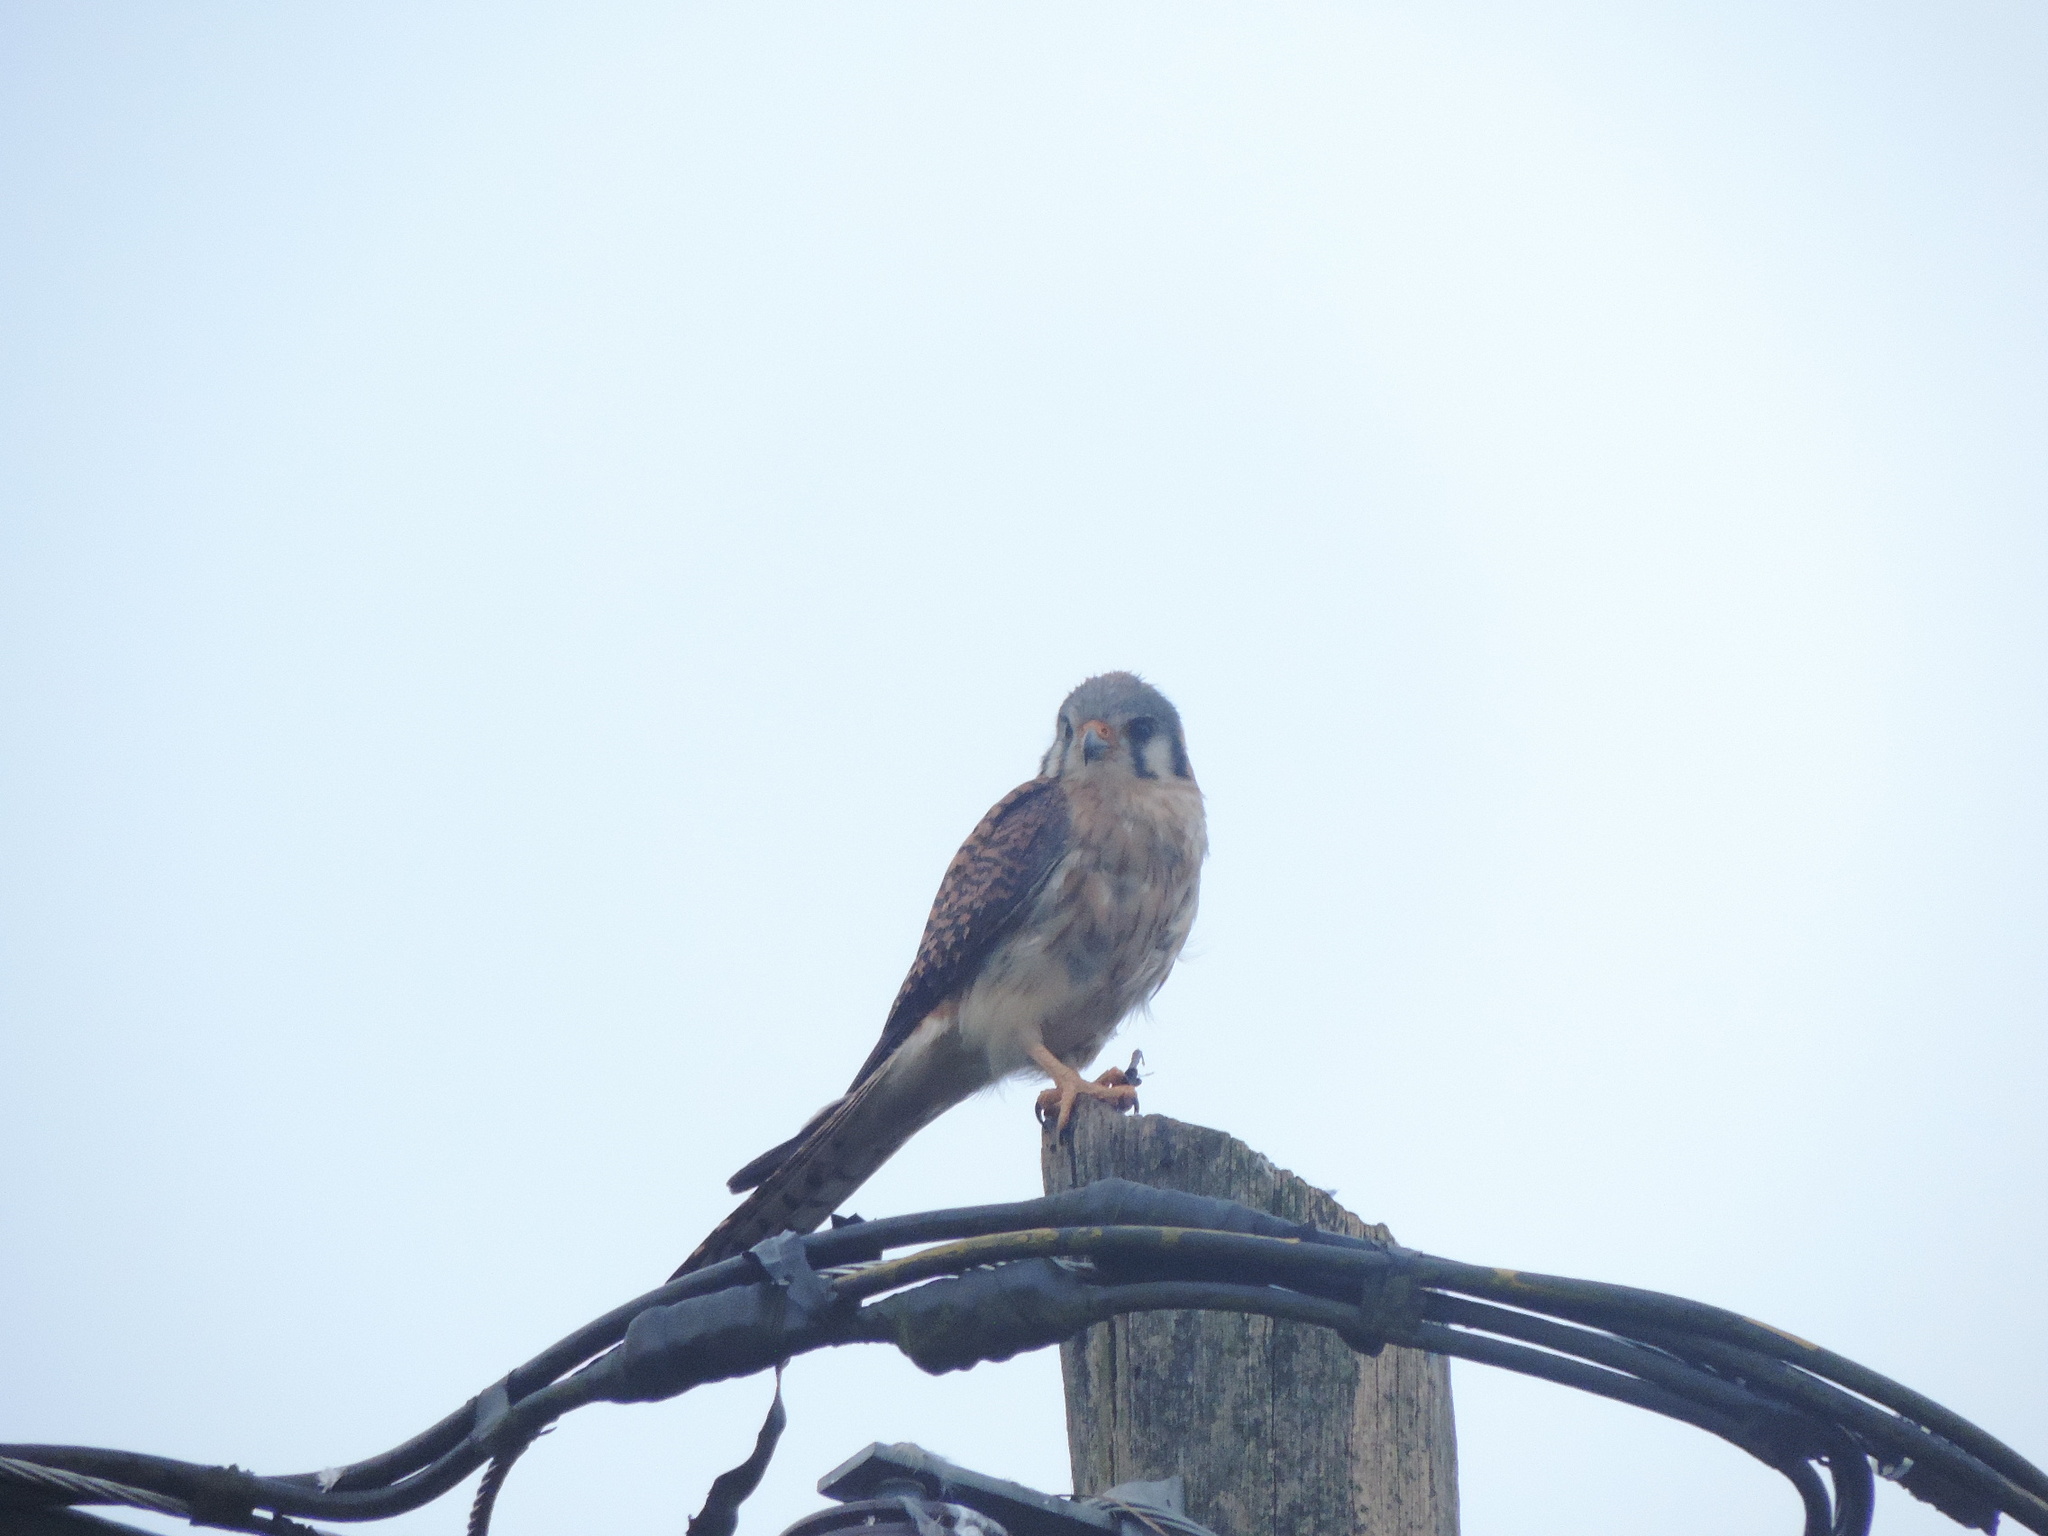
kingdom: Animalia
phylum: Chordata
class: Aves
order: Falconiformes
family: Falconidae
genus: Falco
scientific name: Falco sparverius
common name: American kestrel
